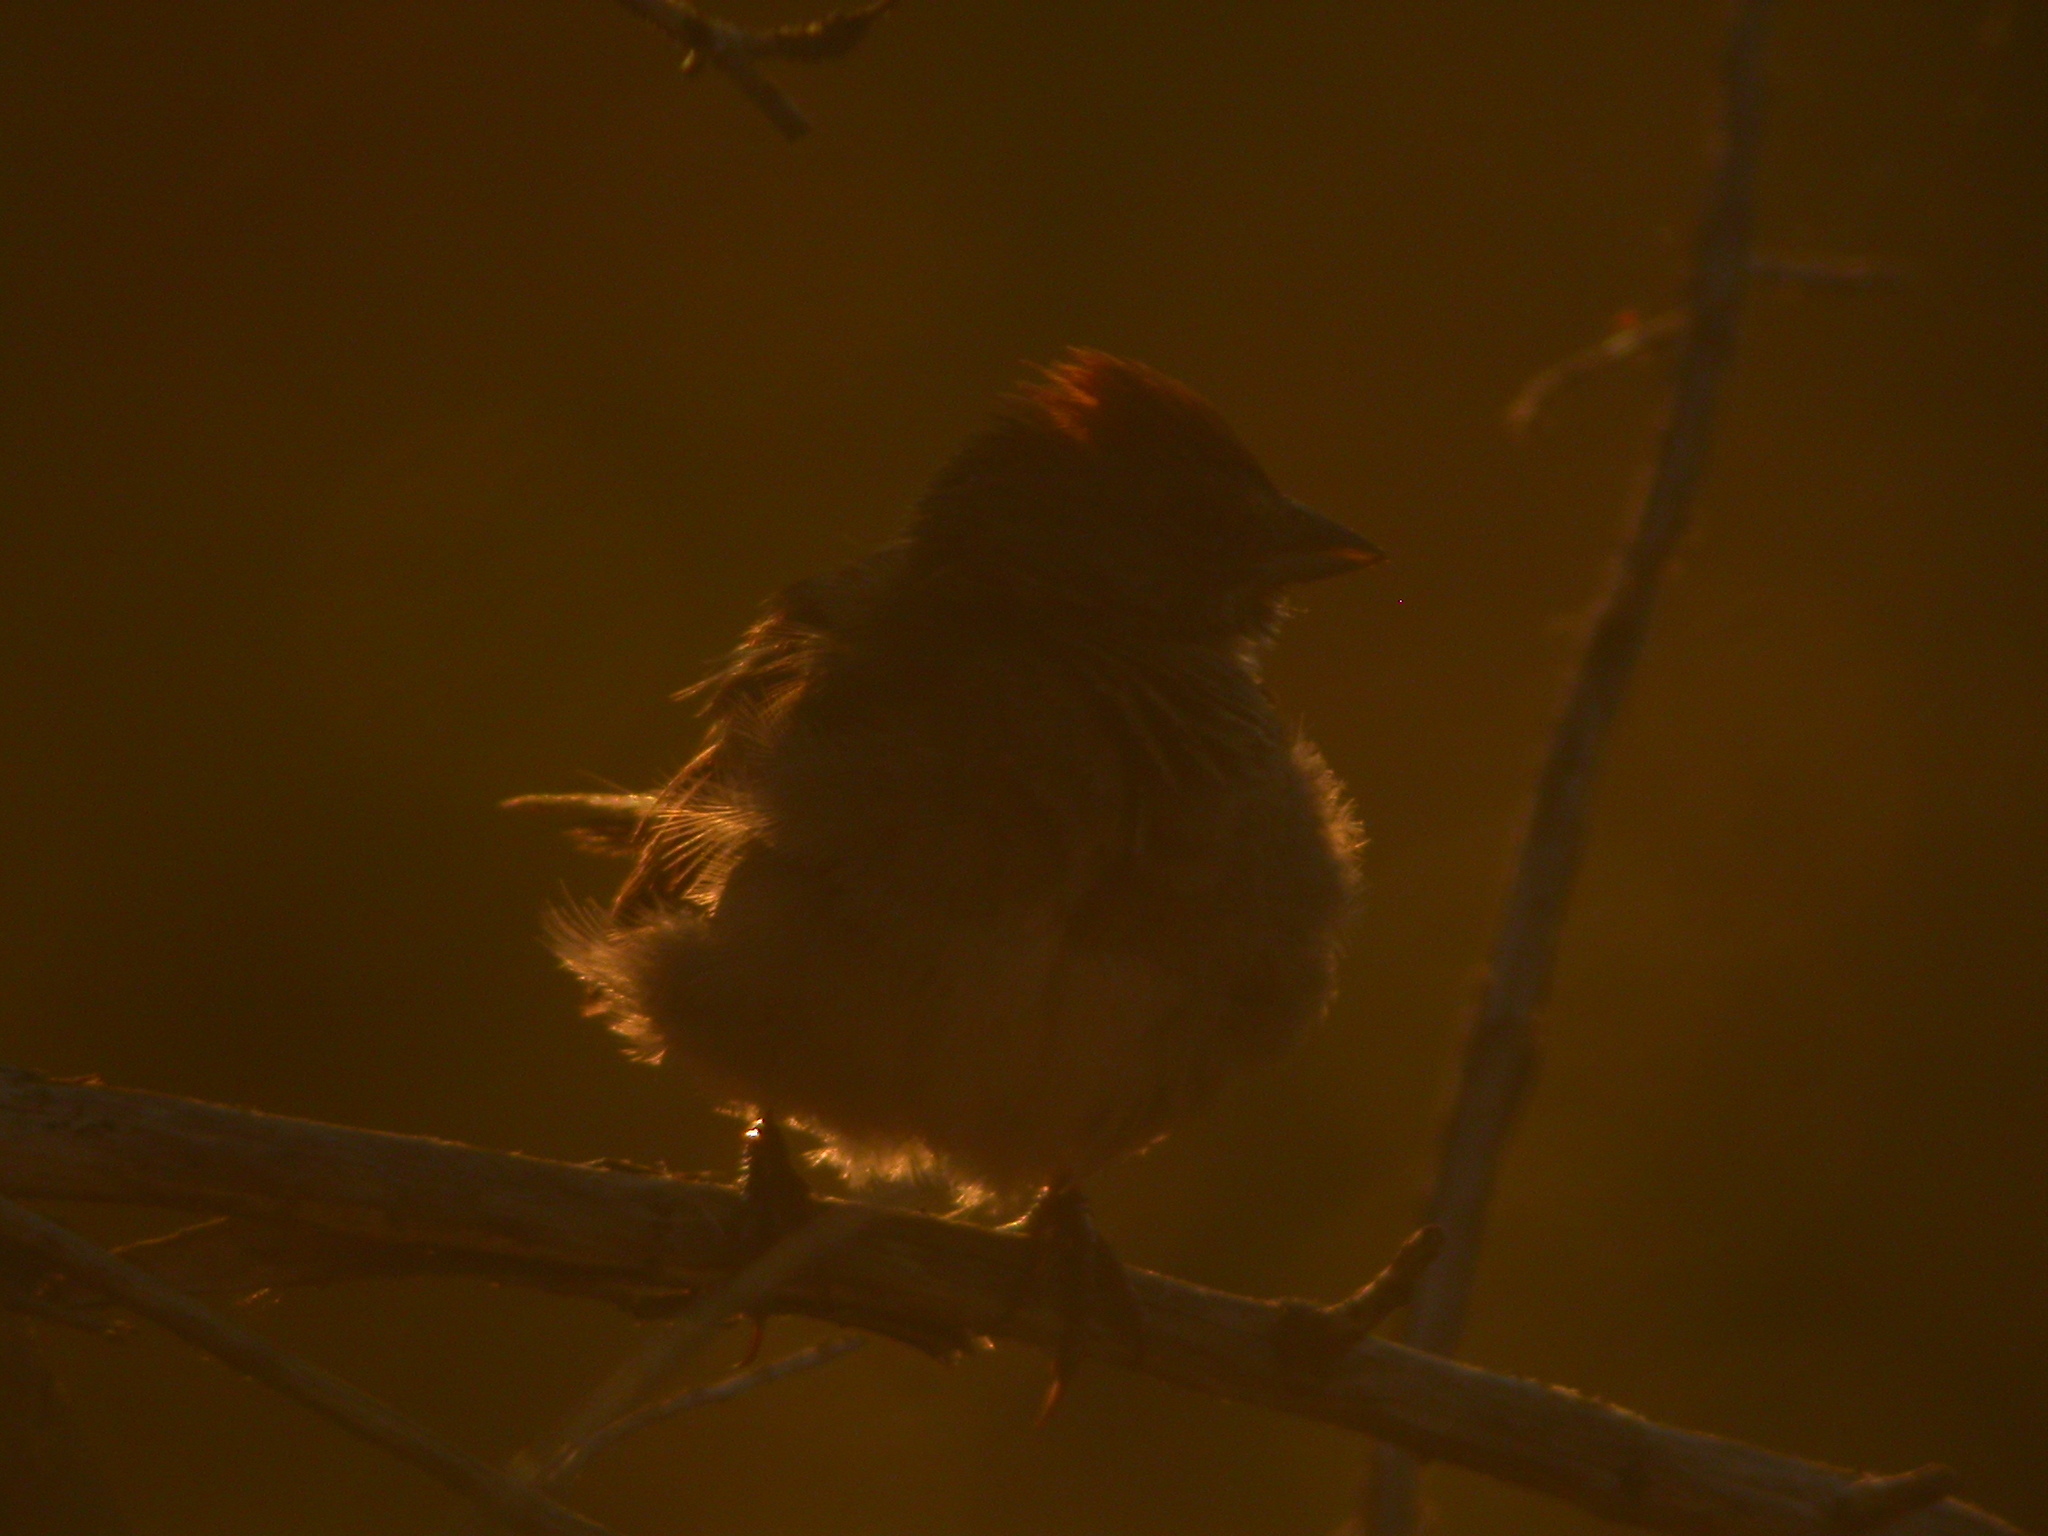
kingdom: Animalia
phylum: Chordata
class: Aves
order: Passeriformes
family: Passerellidae
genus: Pipilo
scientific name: Pipilo chlorurus
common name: Green-tailed towhee
